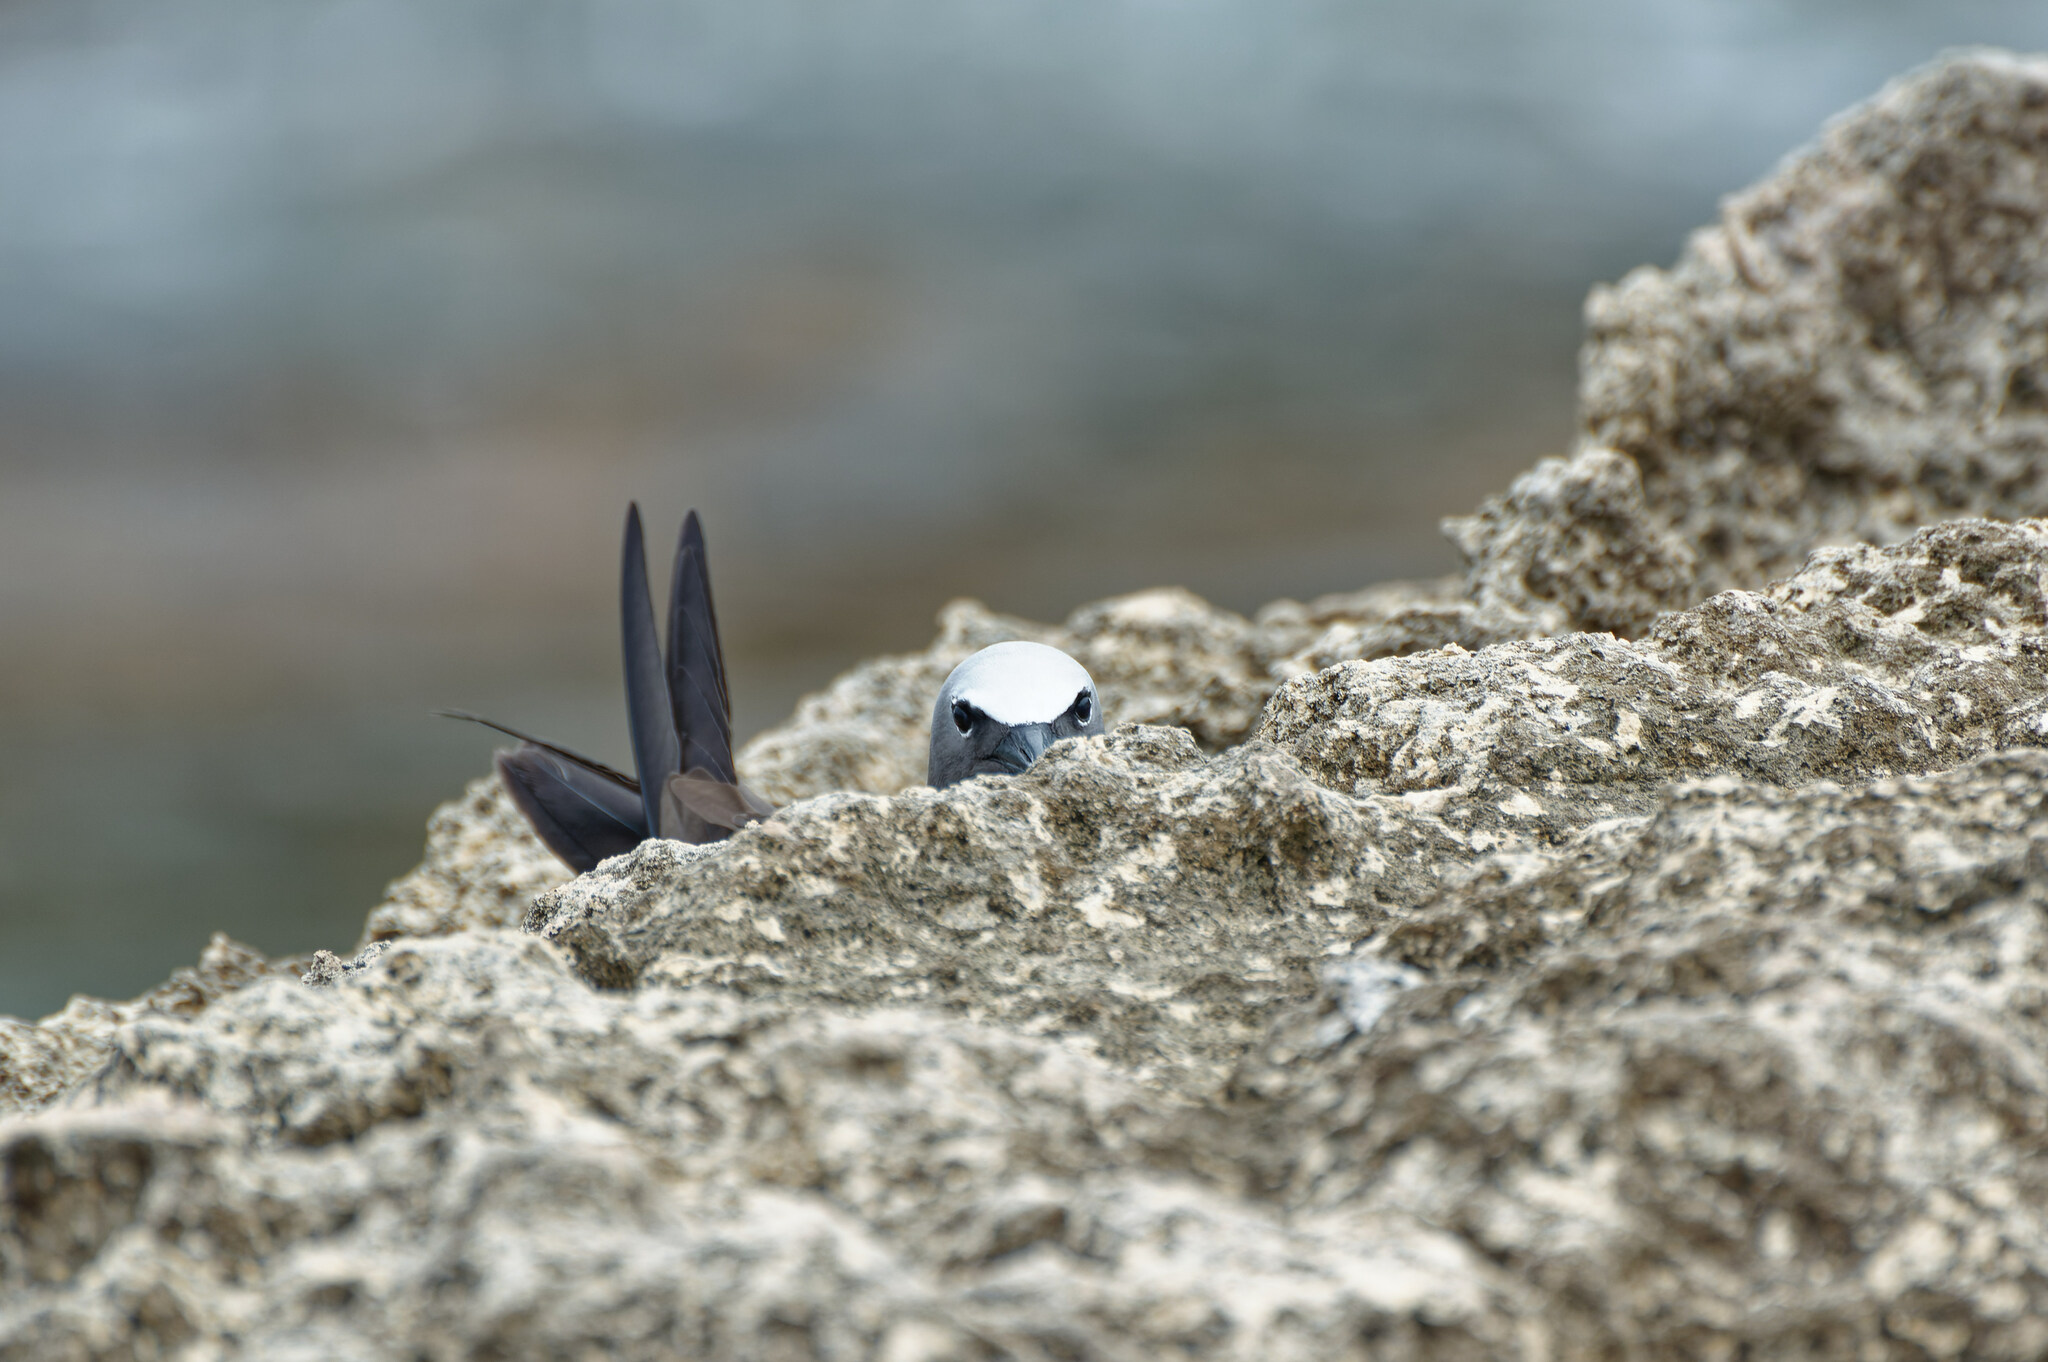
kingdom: Animalia
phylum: Chordata
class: Aves
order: Charadriiformes
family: Laridae
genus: Anous
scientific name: Anous stolidus
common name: Brown noddy
